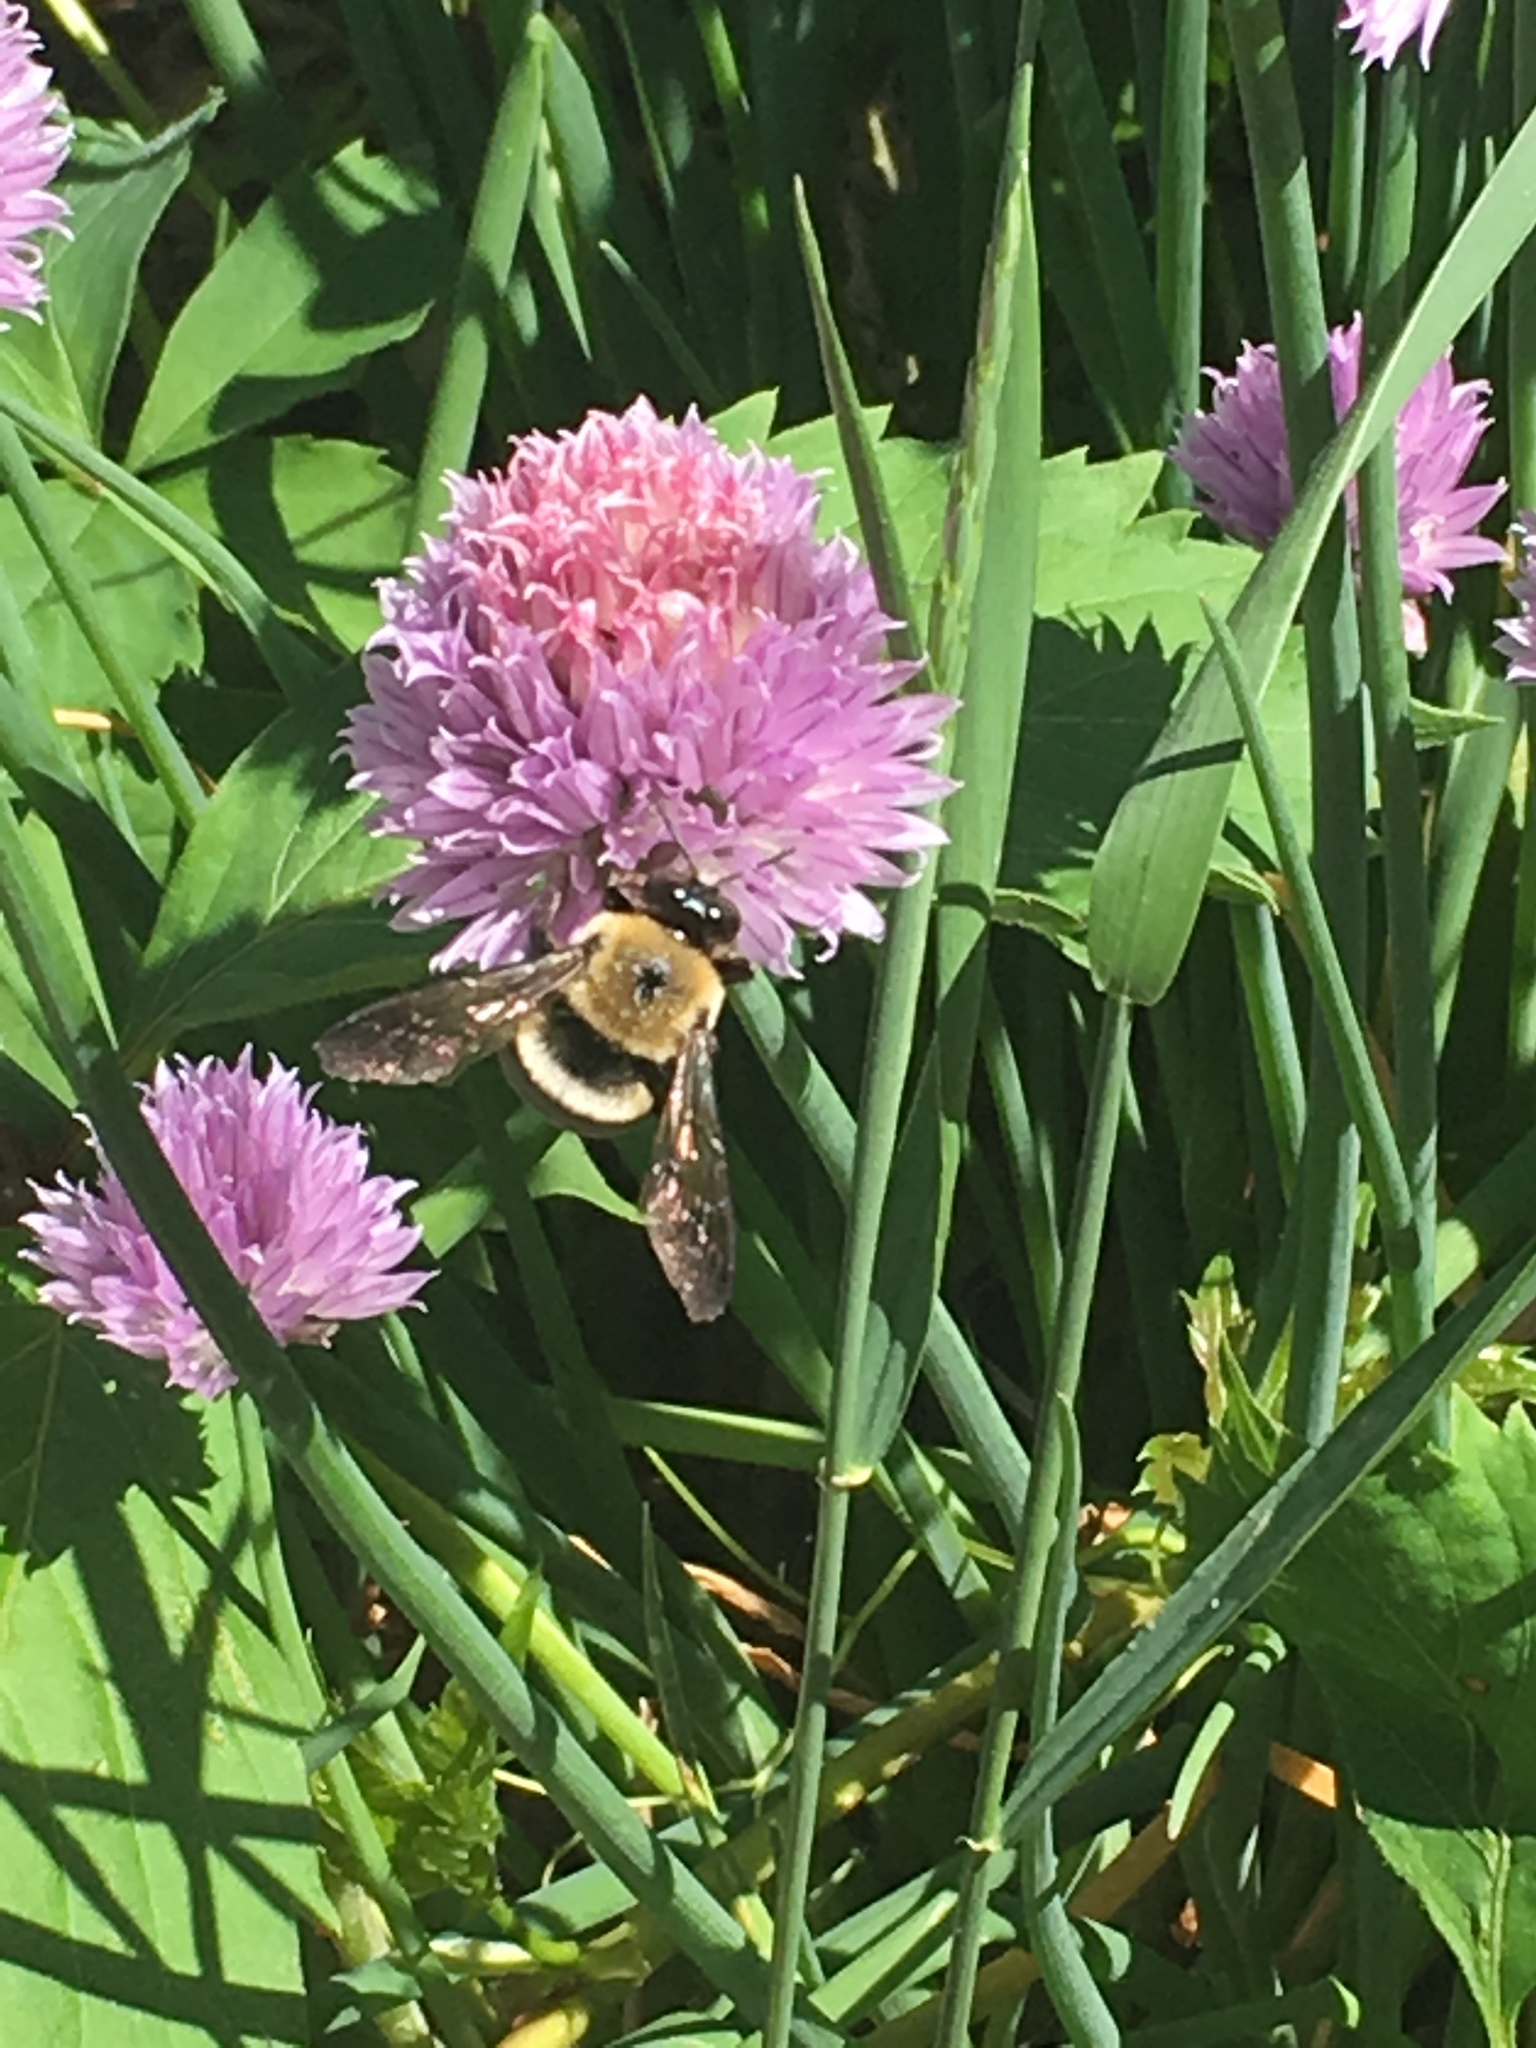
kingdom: Animalia
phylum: Arthropoda
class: Insecta
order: Hymenoptera
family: Apidae
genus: Xylocopa
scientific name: Xylocopa virginica
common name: Carpenter bee
